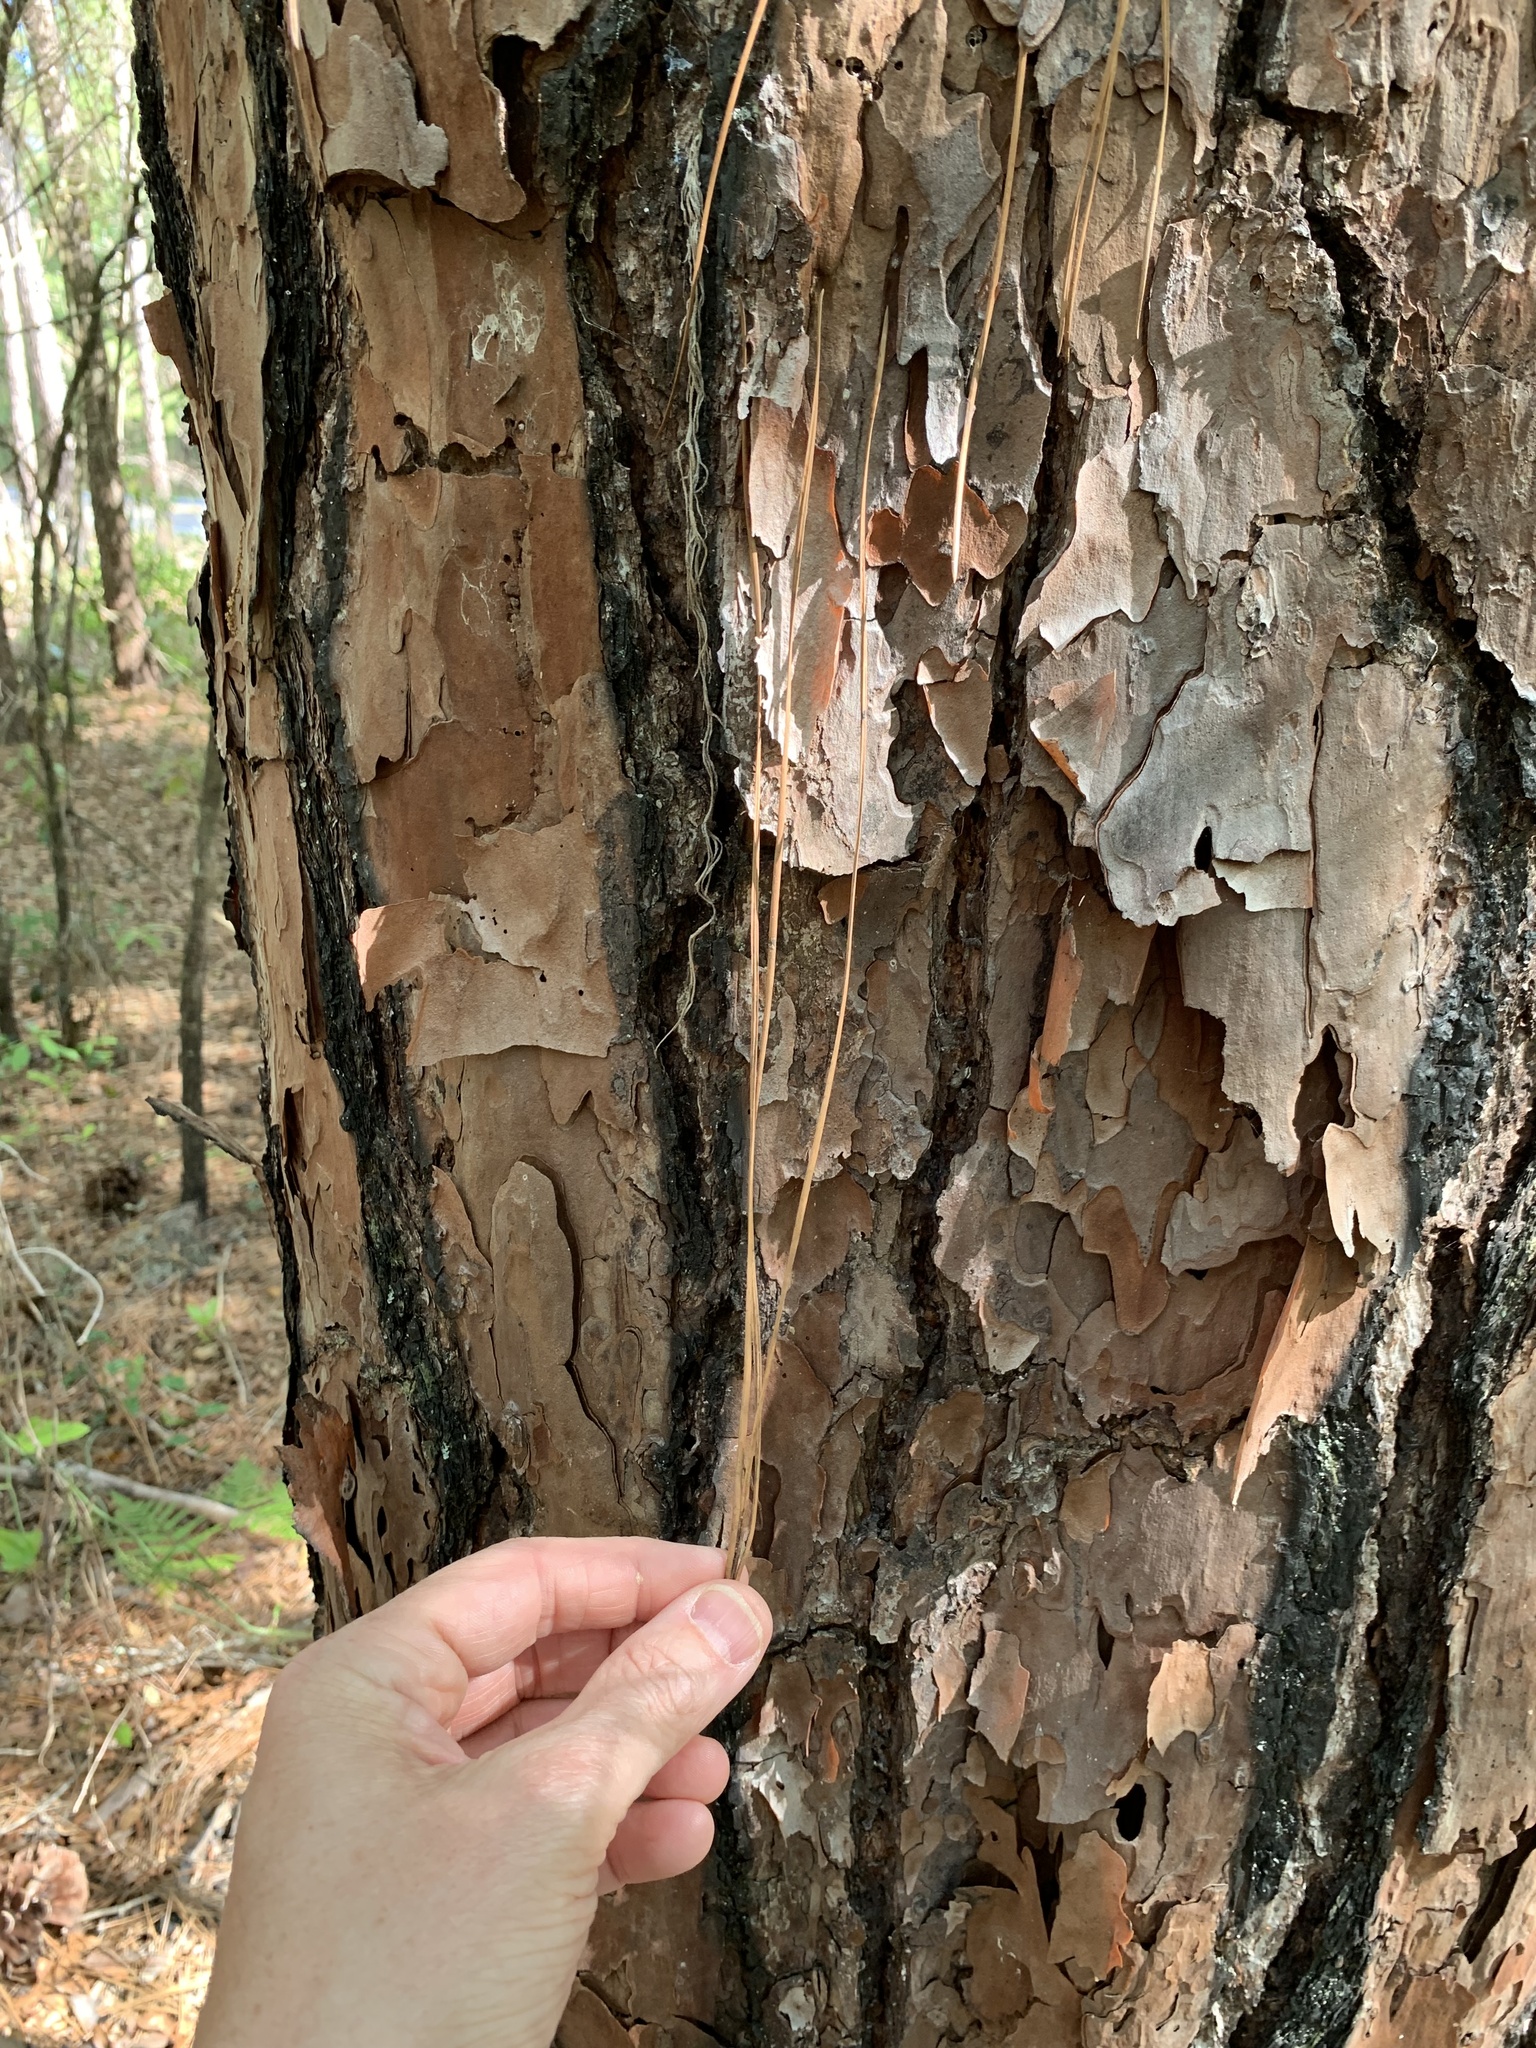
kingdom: Plantae
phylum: Tracheophyta
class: Pinopsida
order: Pinales
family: Pinaceae
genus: Pinus
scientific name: Pinus palustris
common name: Longleaf pine
